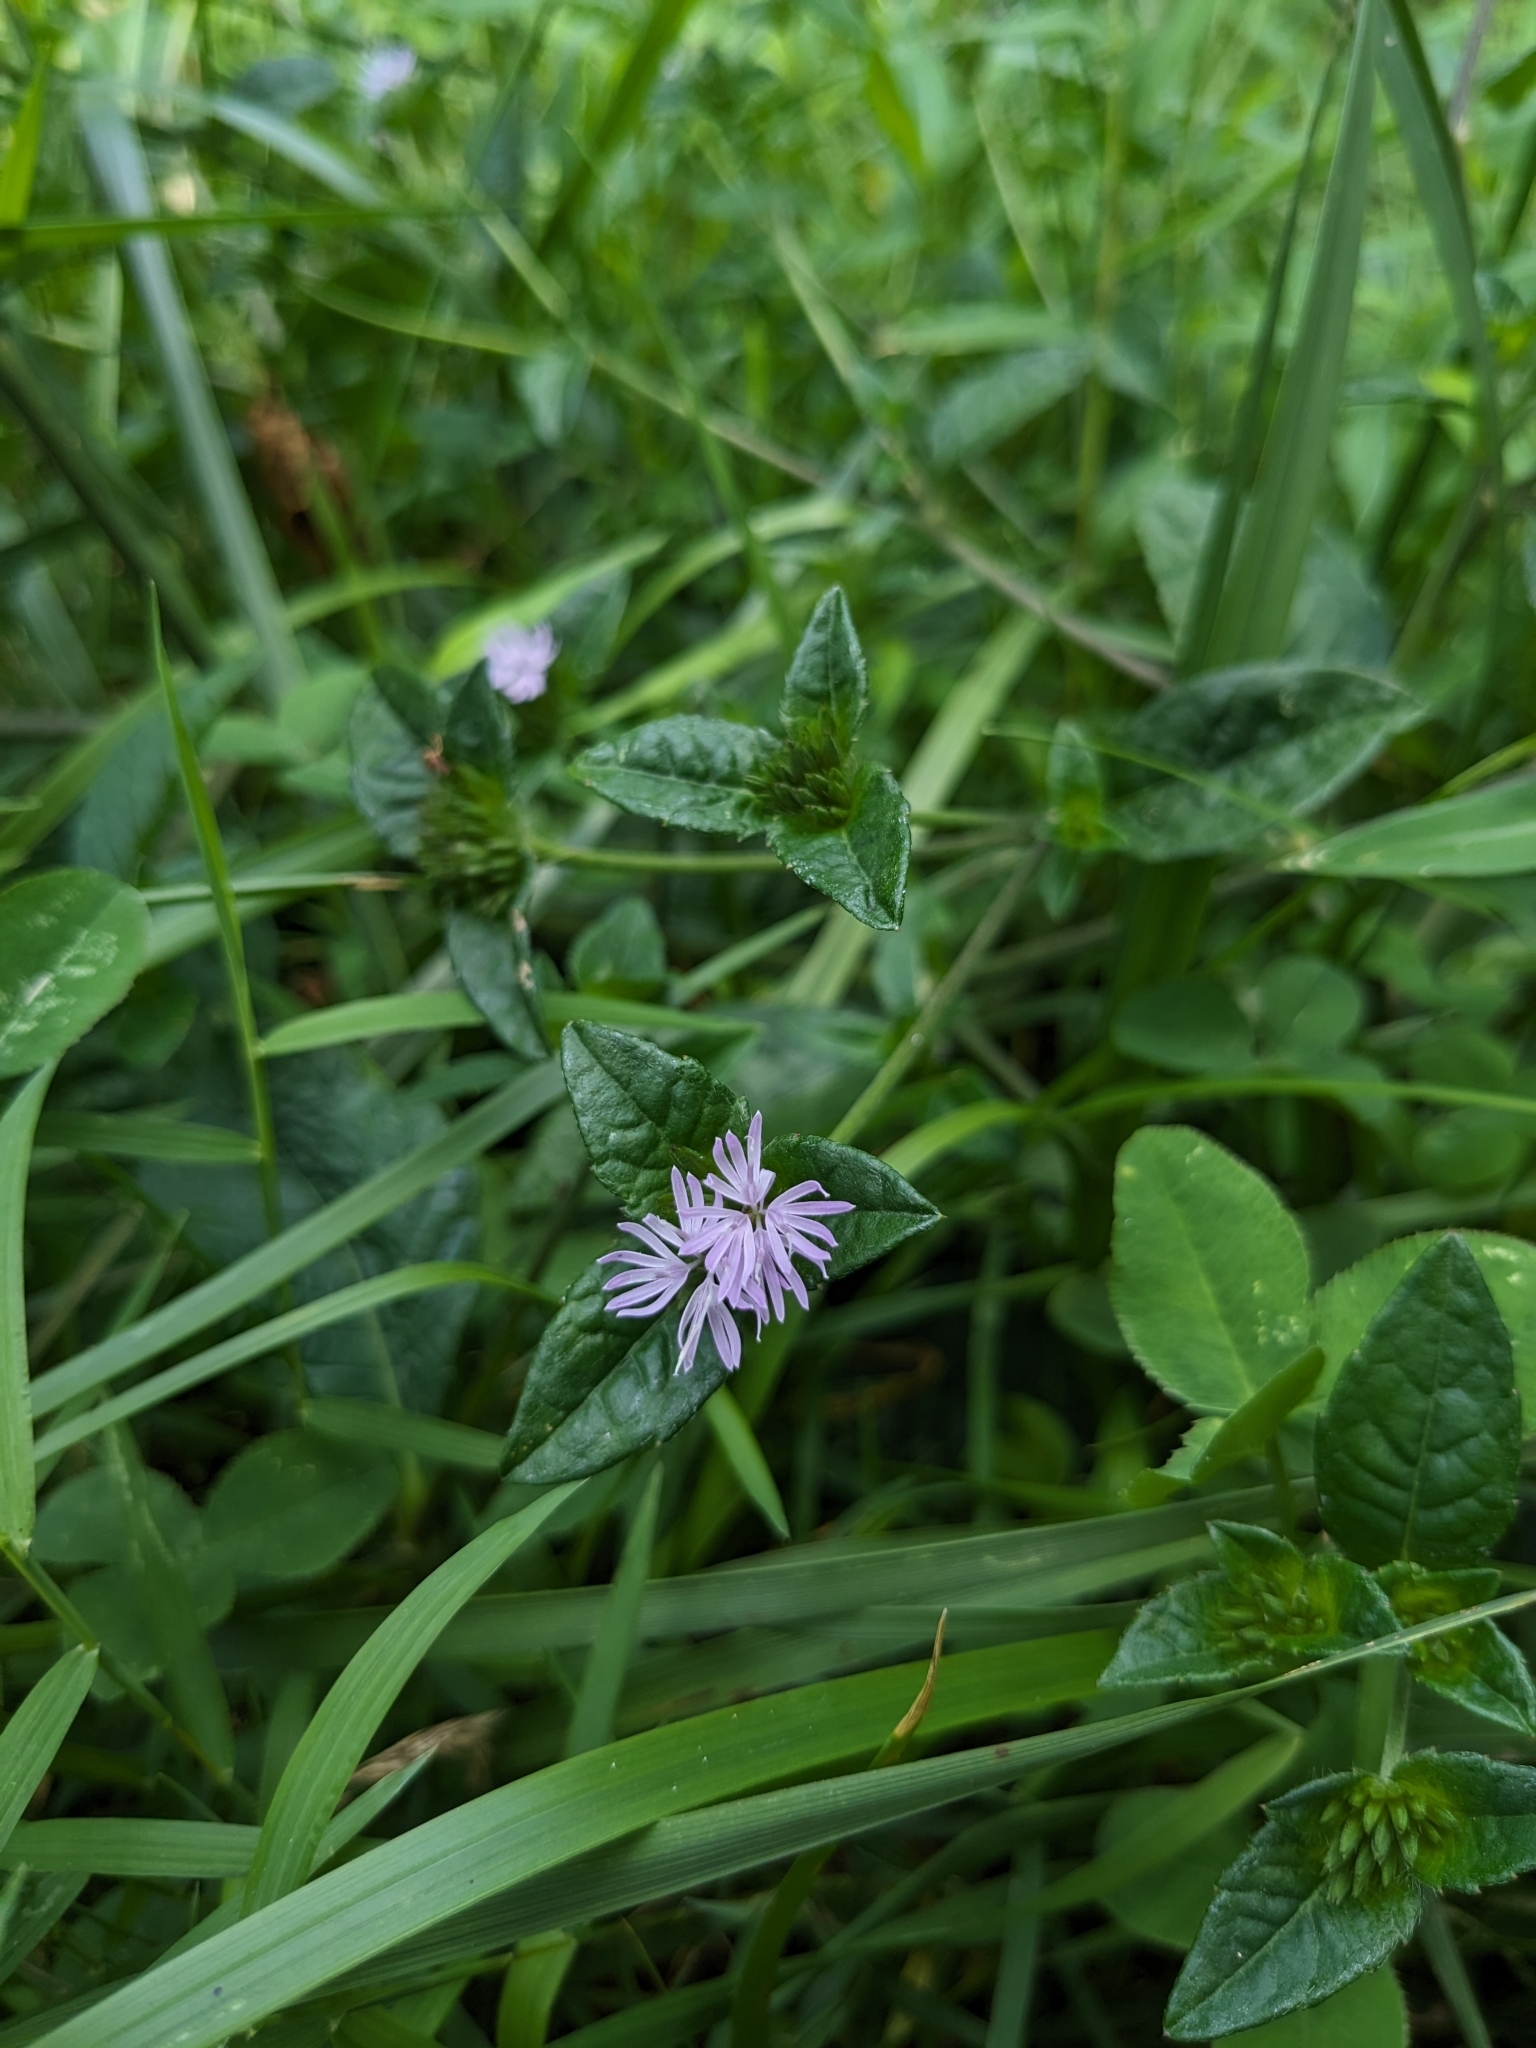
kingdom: Plantae
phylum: Tracheophyta
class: Magnoliopsida
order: Asterales
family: Asteraceae
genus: Elephantopus
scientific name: Elephantopus carolinianus
